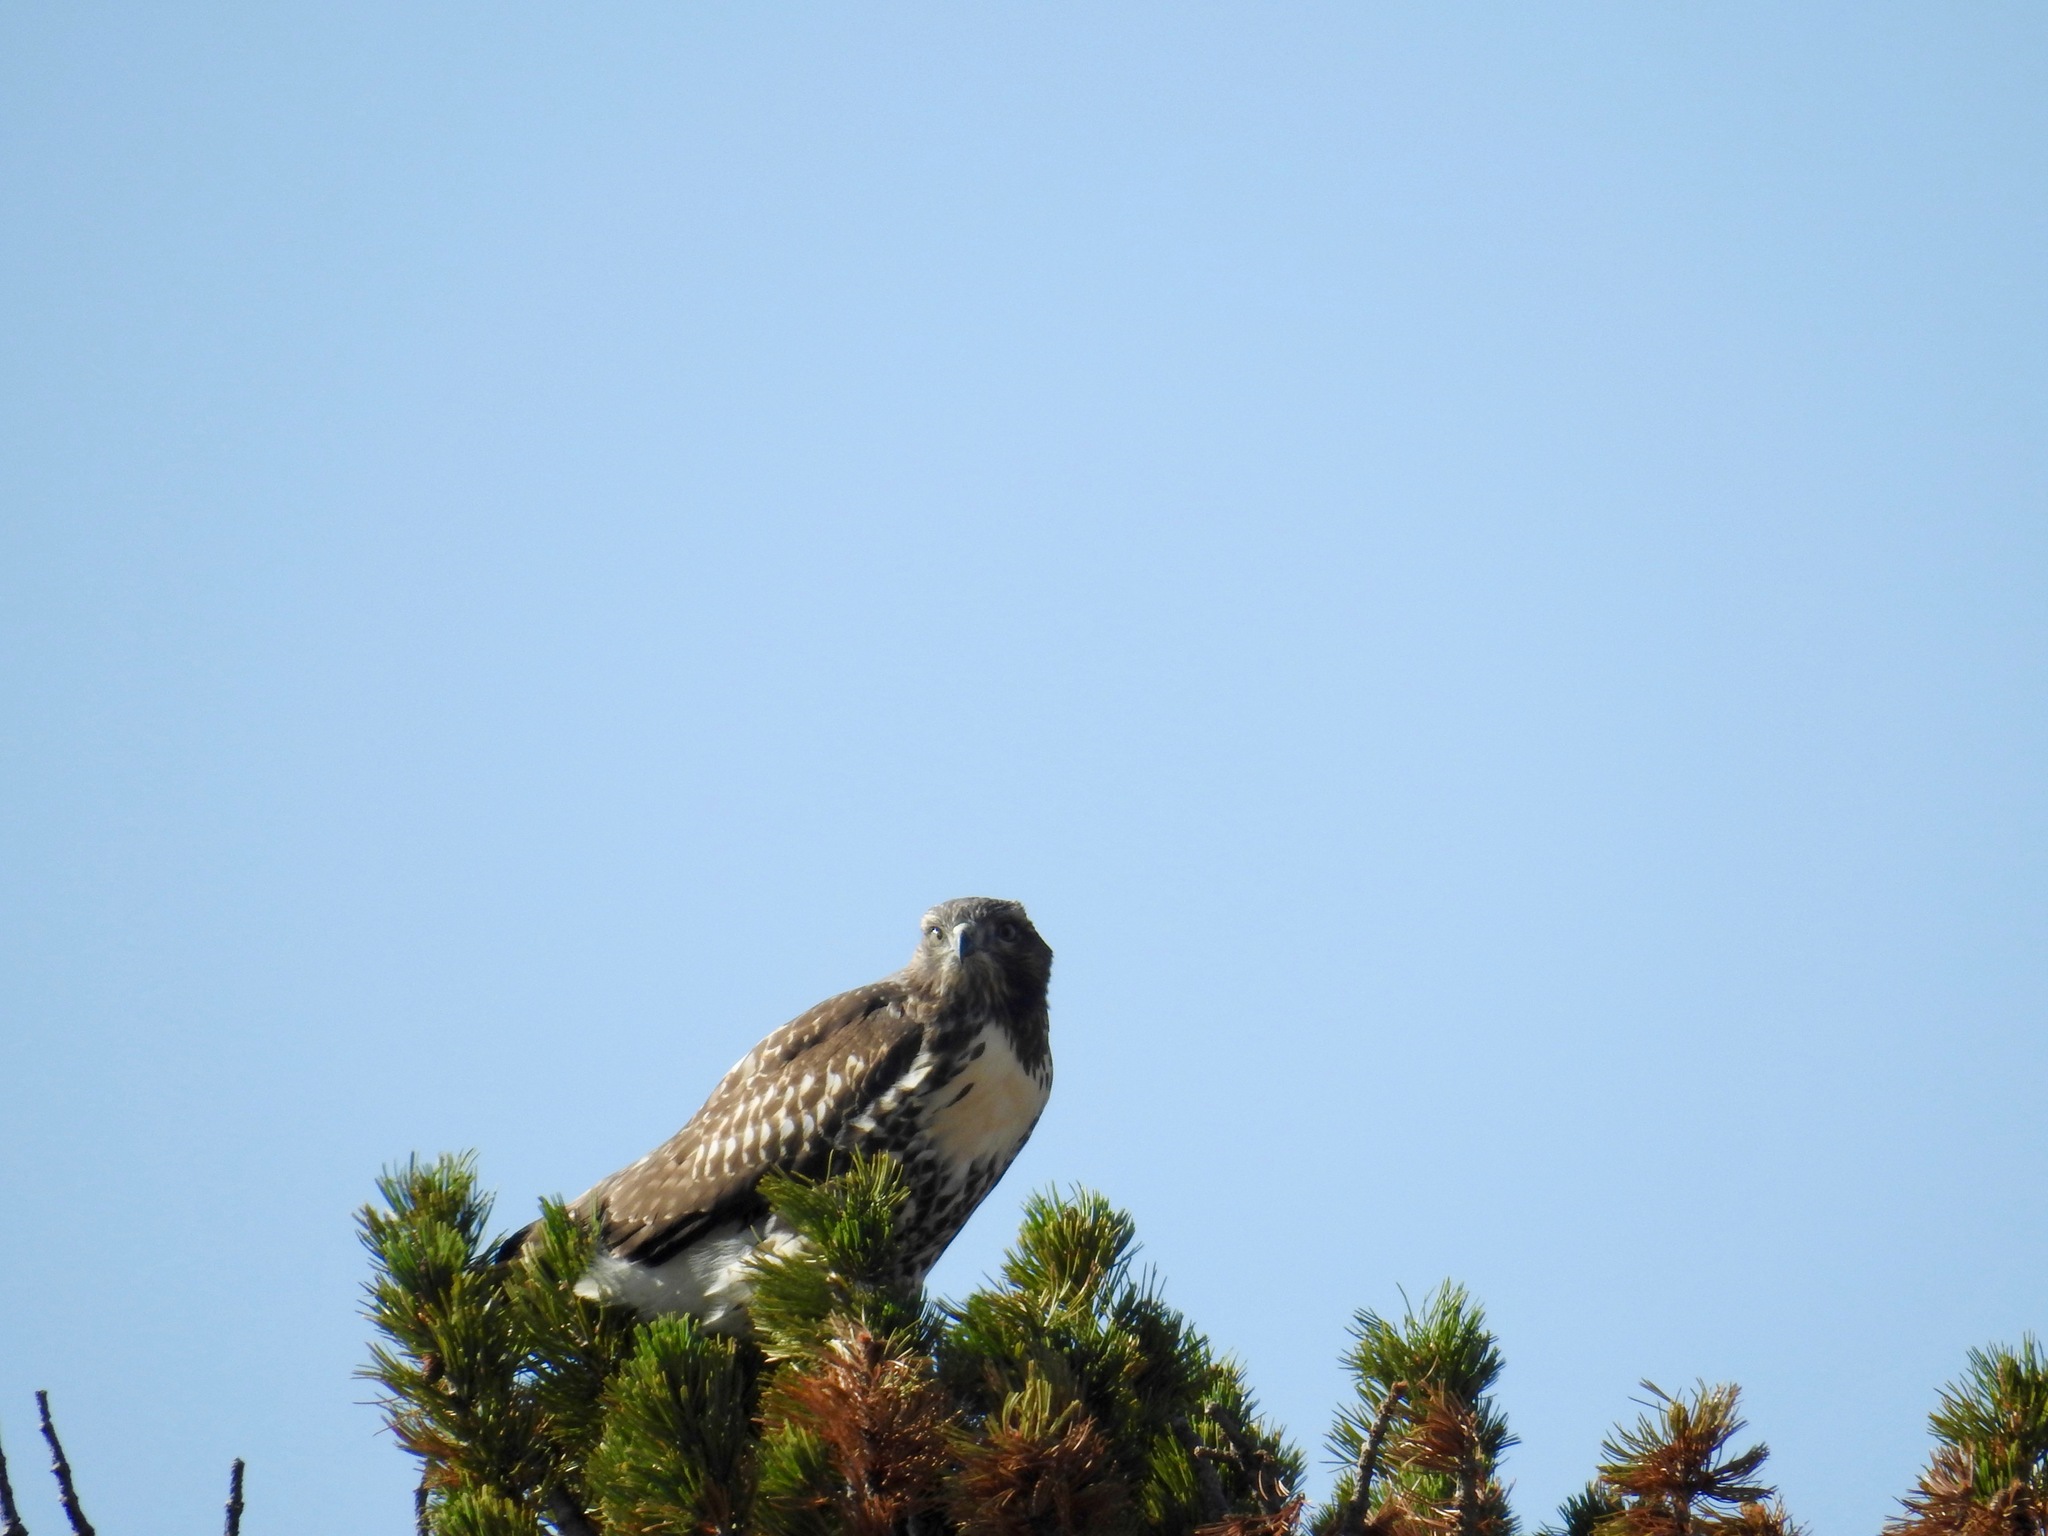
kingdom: Animalia
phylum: Chordata
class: Aves
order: Accipitriformes
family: Accipitridae
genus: Buteo
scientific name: Buteo swainsoni
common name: Swainson's hawk
